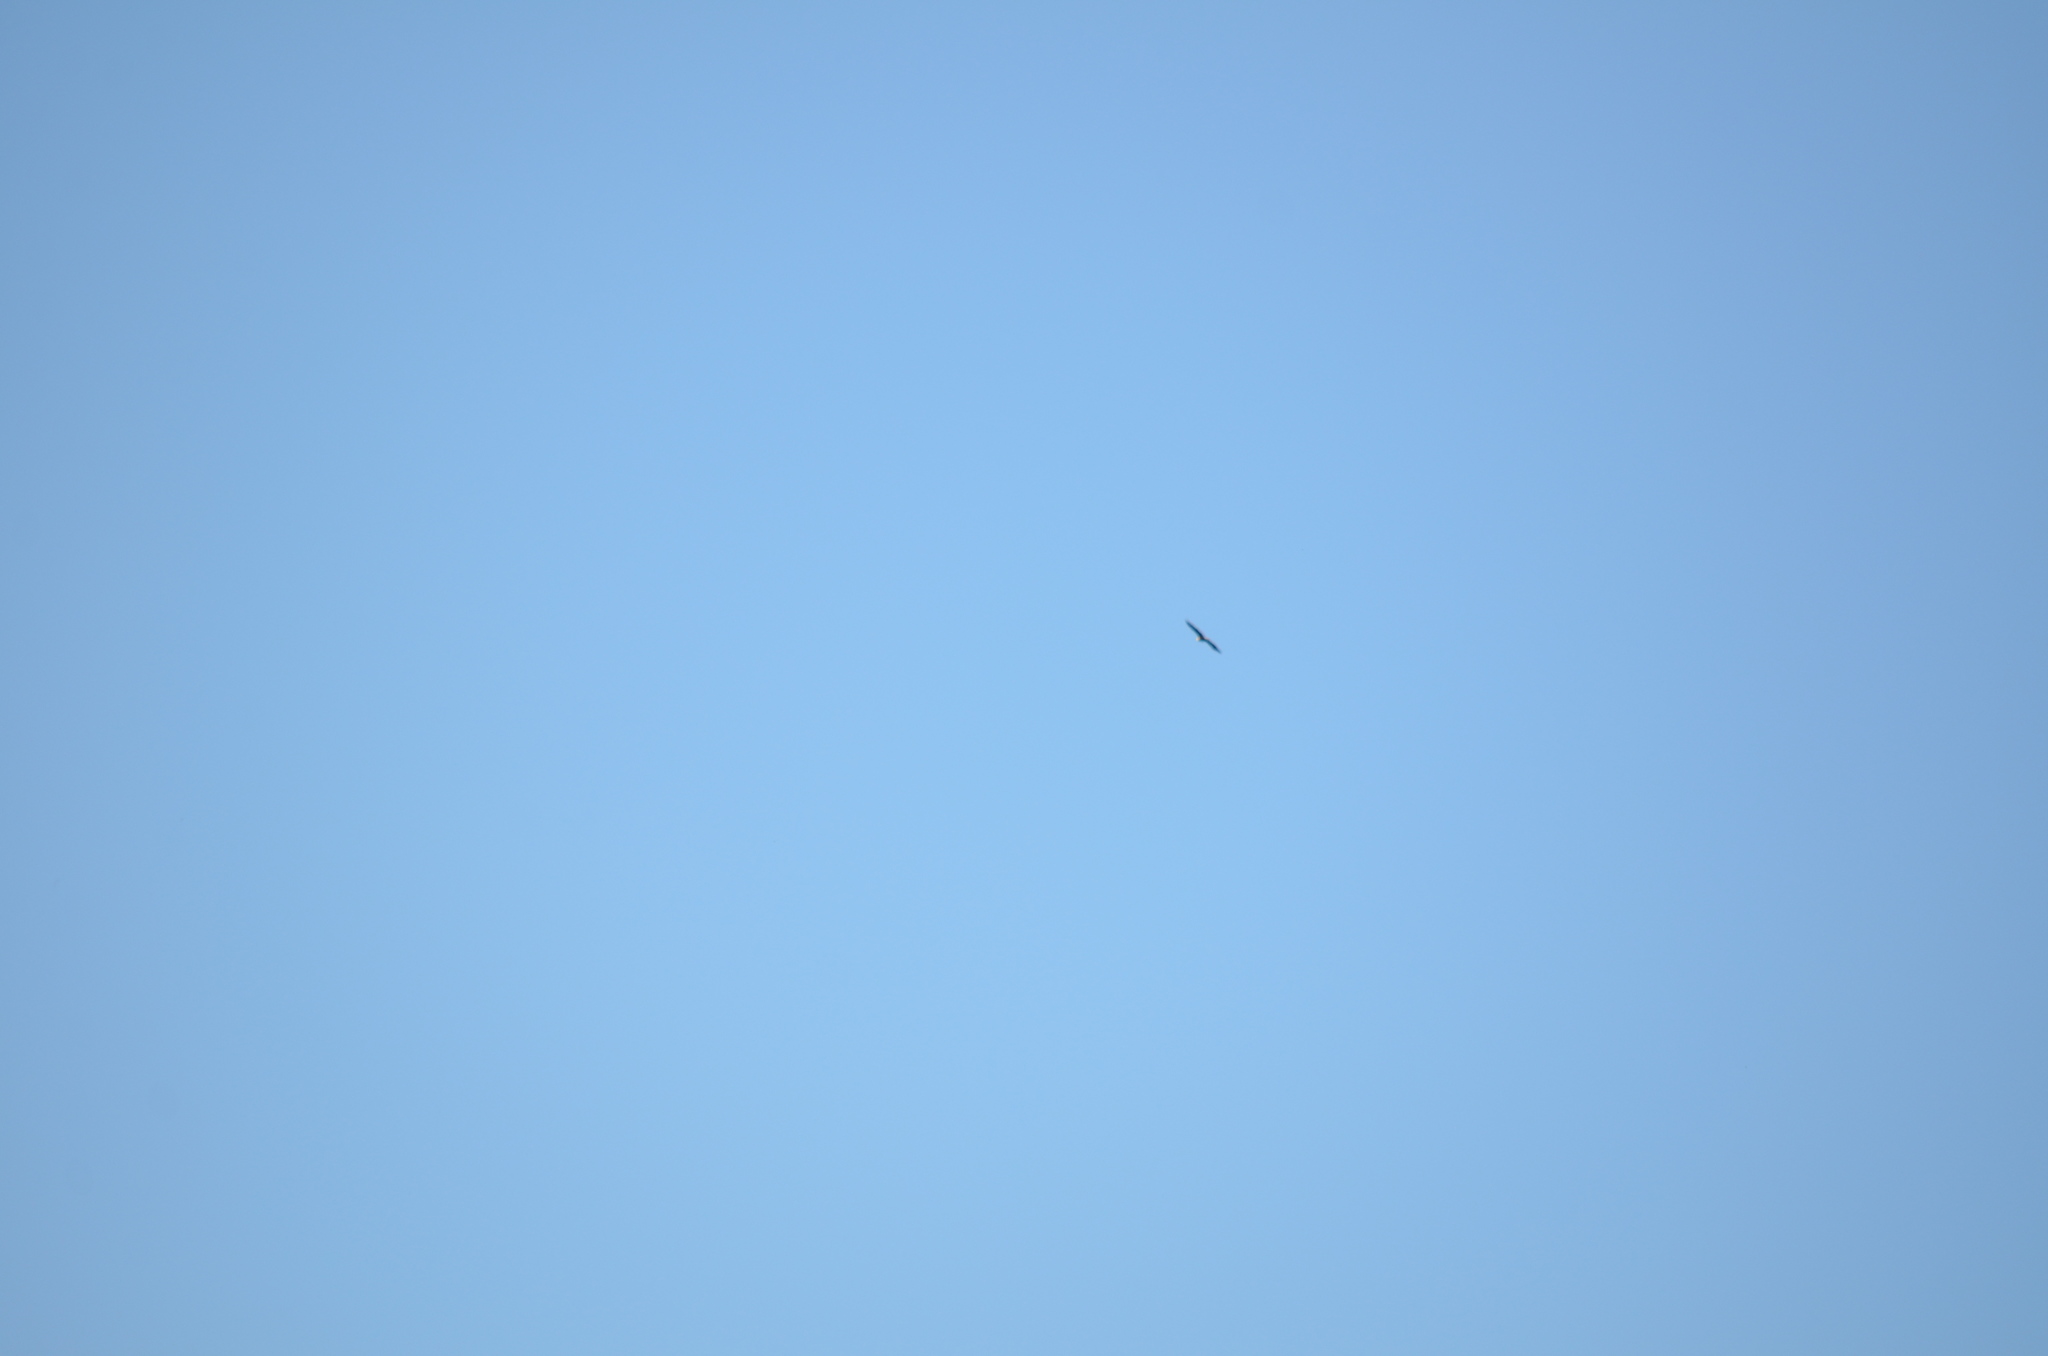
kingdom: Animalia
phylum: Chordata
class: Aves
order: Accipitriformes
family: Accipitridae
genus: Haliaeetus
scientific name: Haliaeetus leucocephalus
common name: Bald eagle
